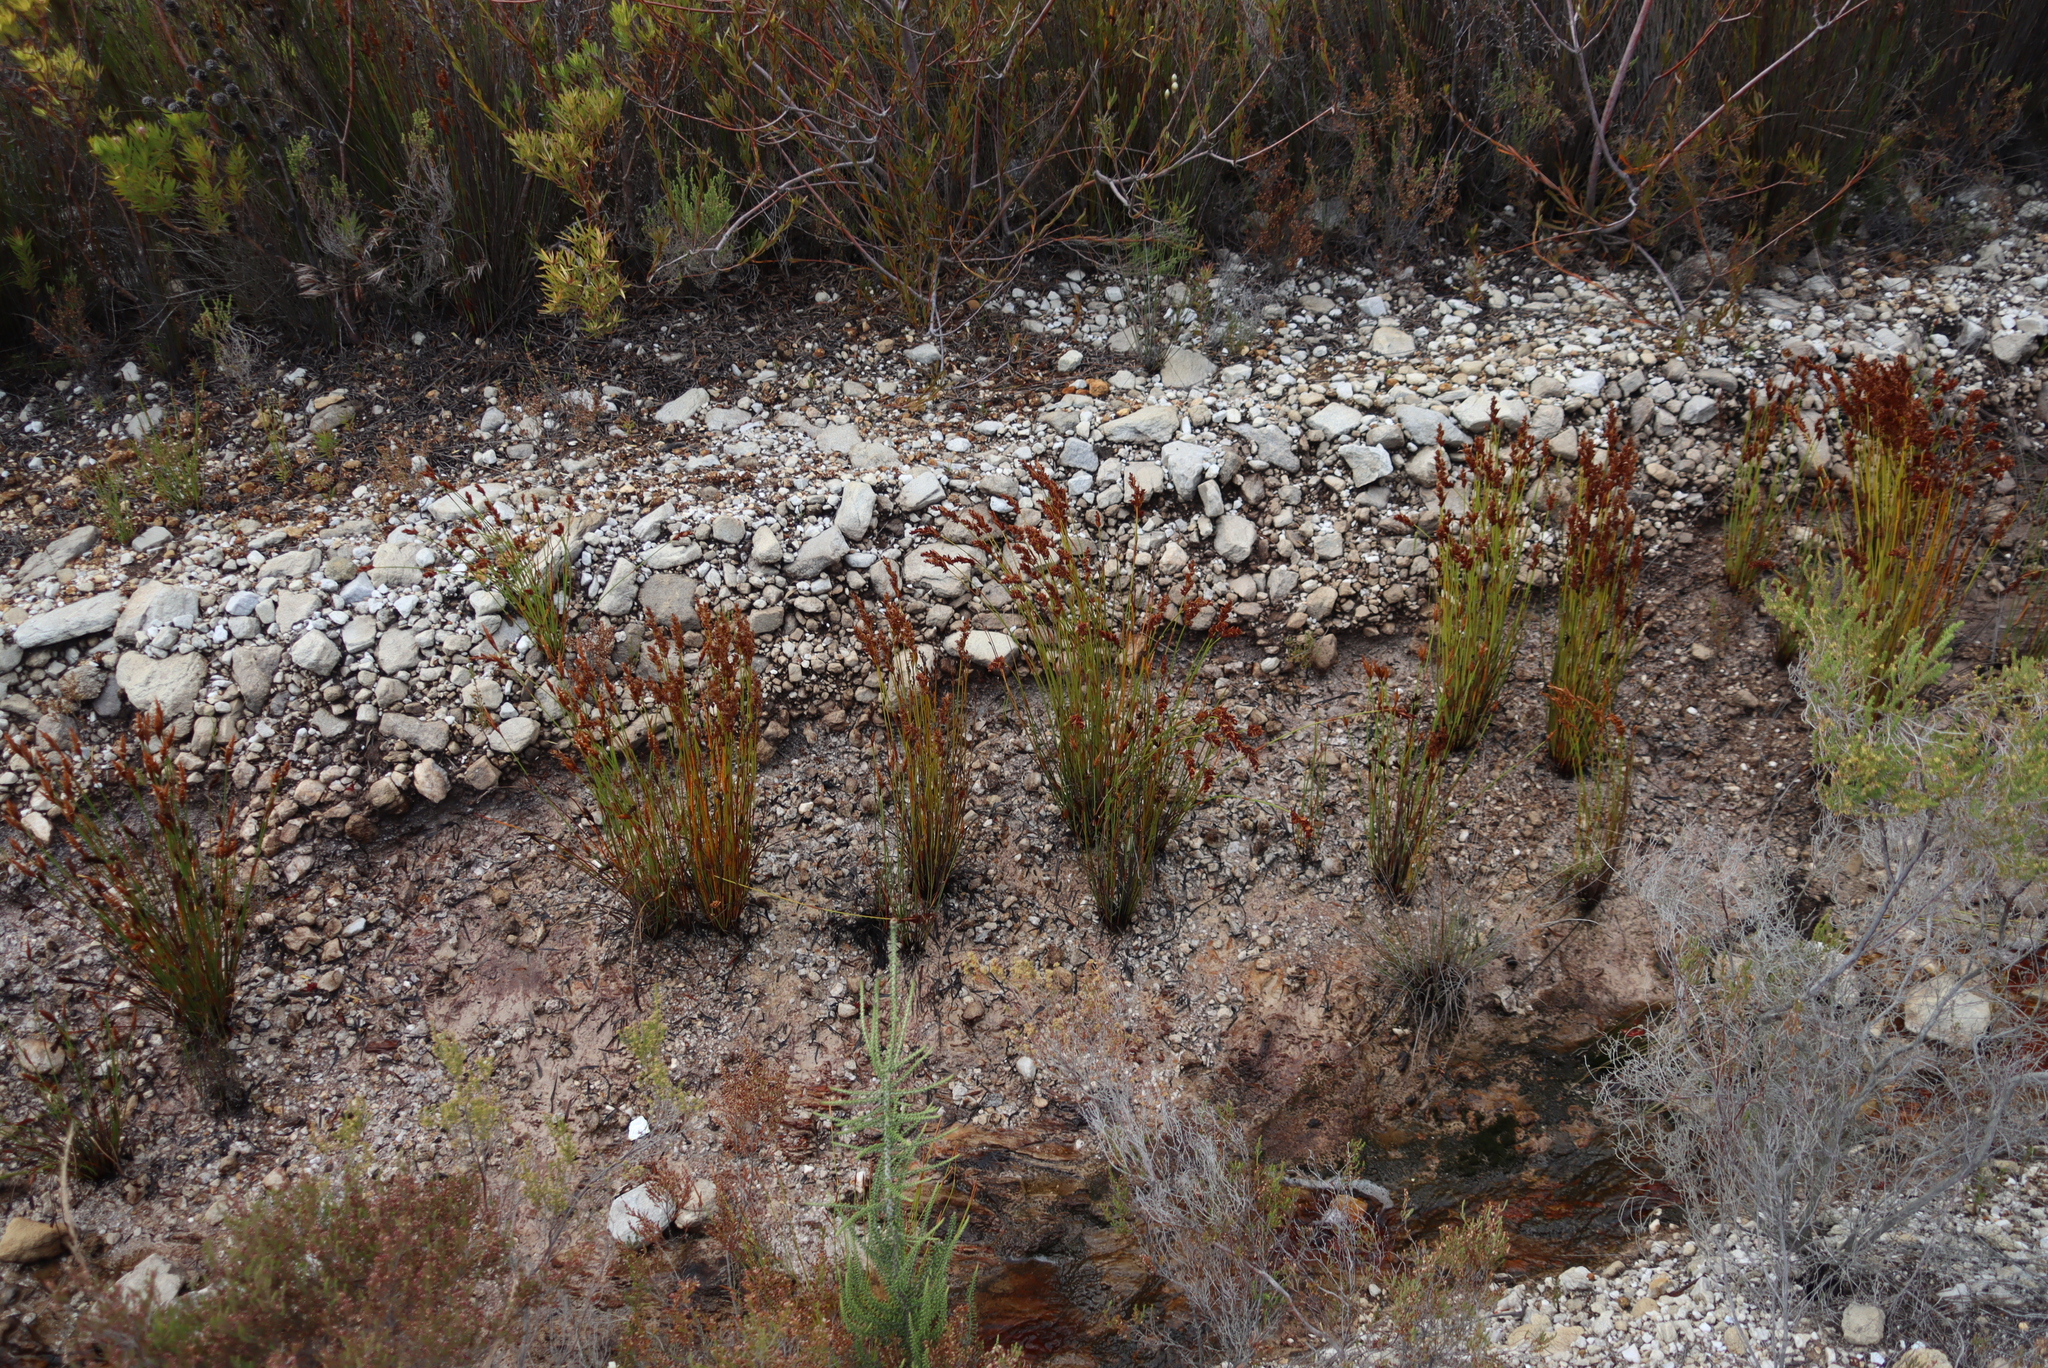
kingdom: Plantae
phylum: Tracheophyta
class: Liliopsida
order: Poales
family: Restionaceae
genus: Elegia
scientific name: Elegia spathacea
